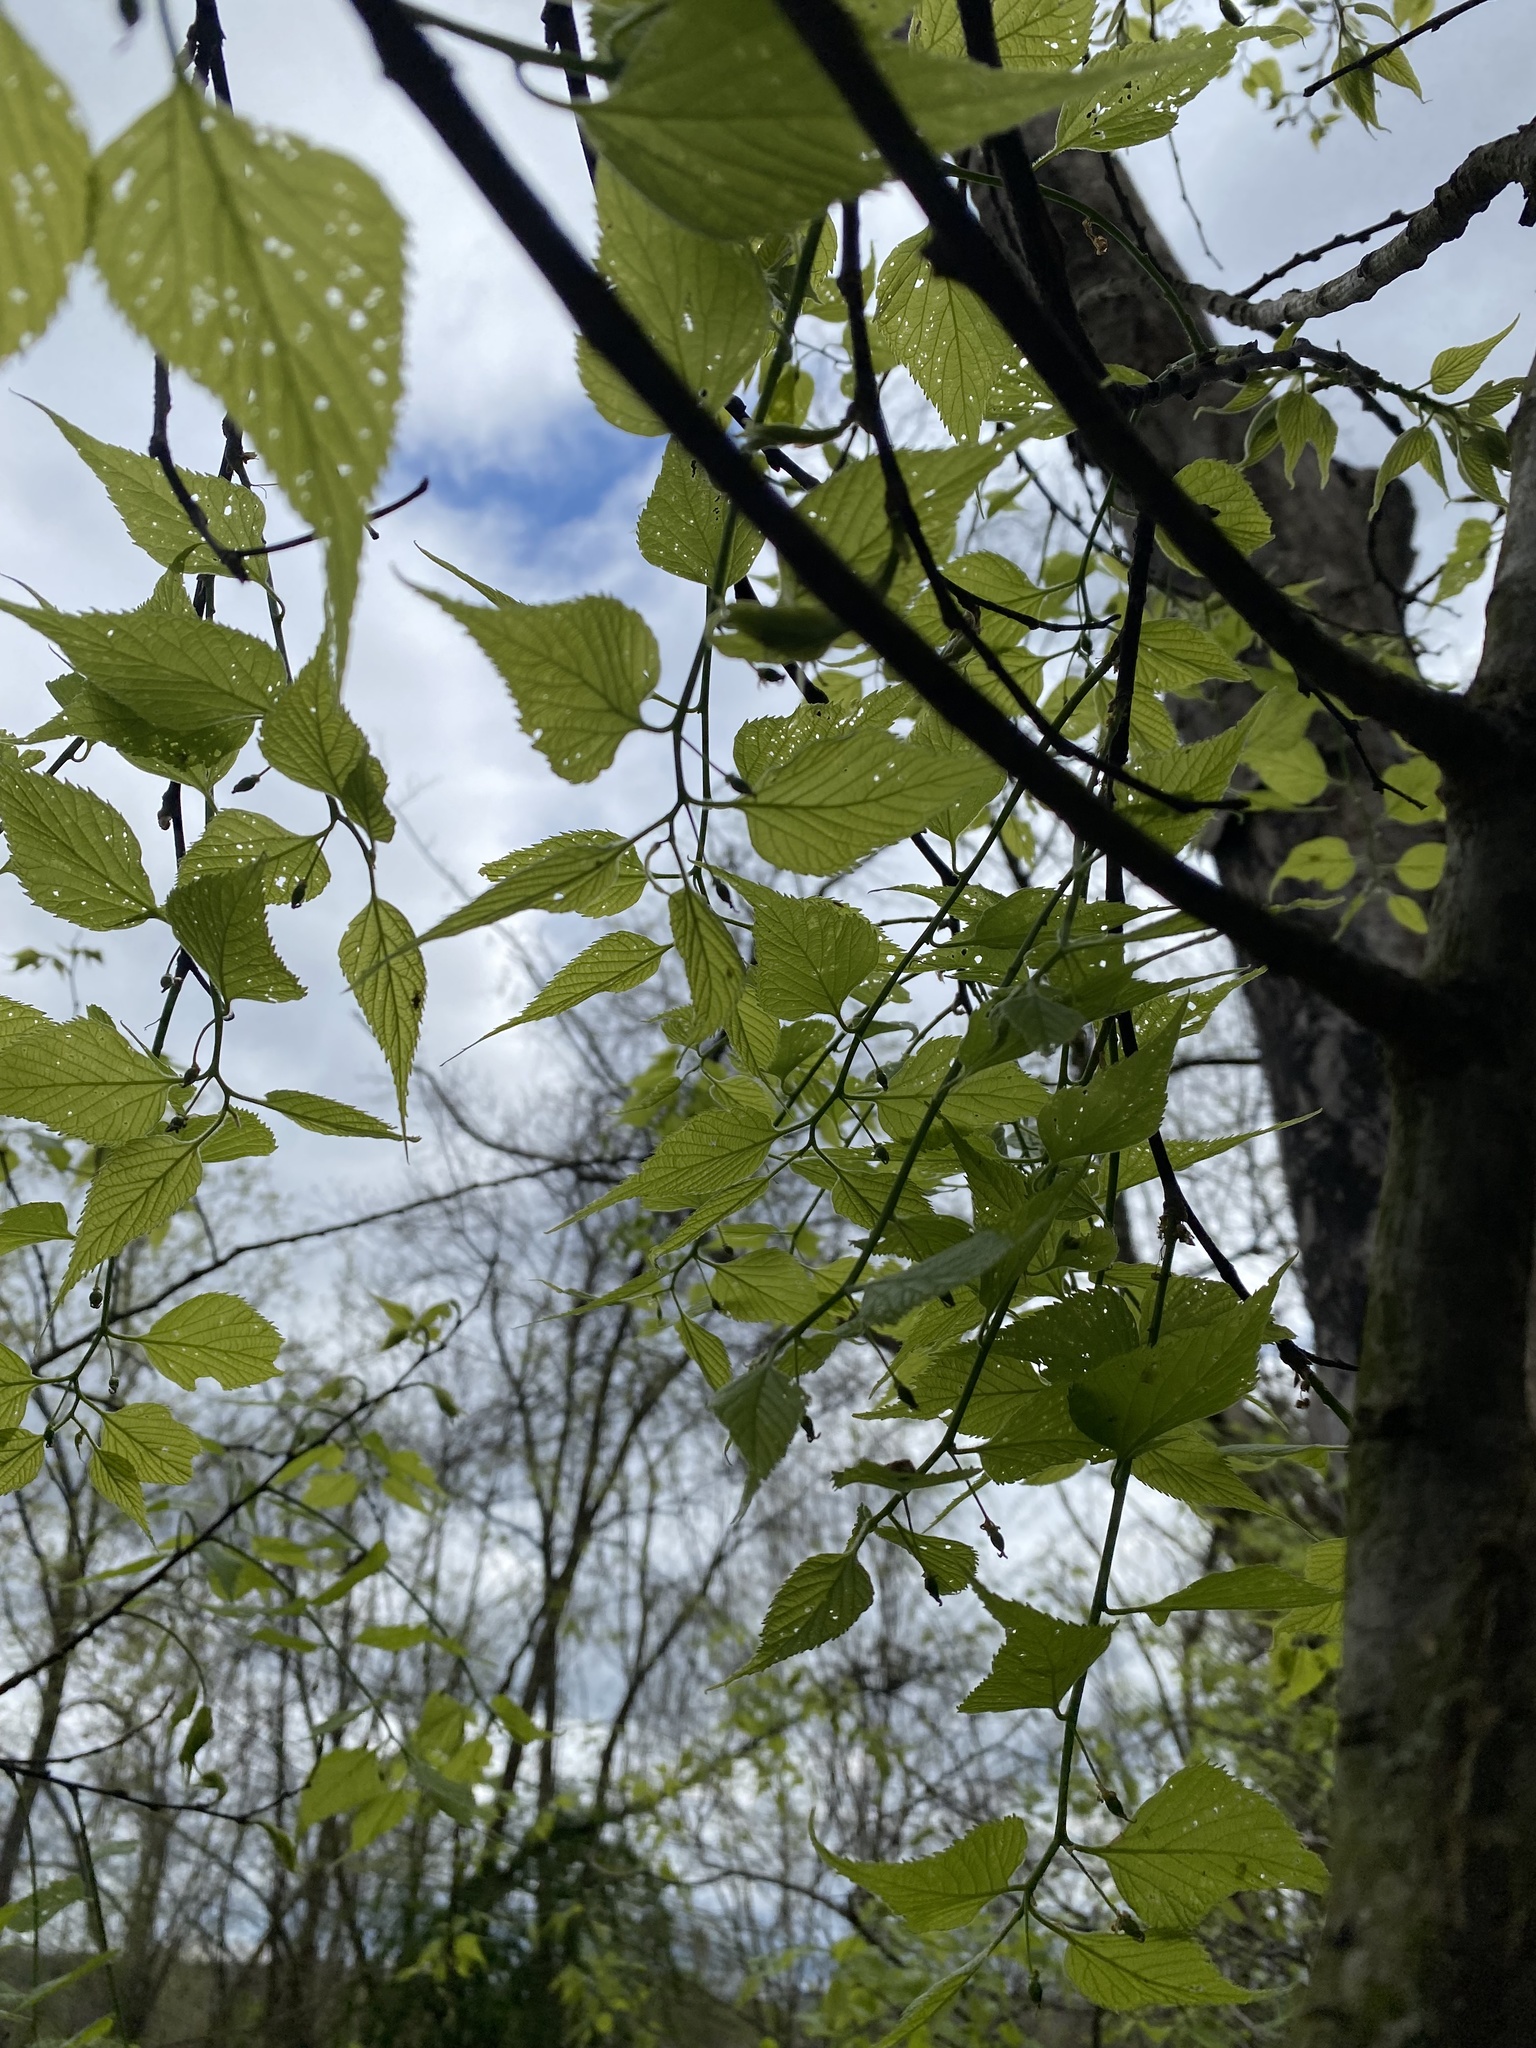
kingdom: Plantae
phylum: Tracheophyta
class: Magnoliopsida
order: Rosales
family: Cannabaceae
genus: Celtis
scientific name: Celtis occidentalis
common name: Common hackberry
